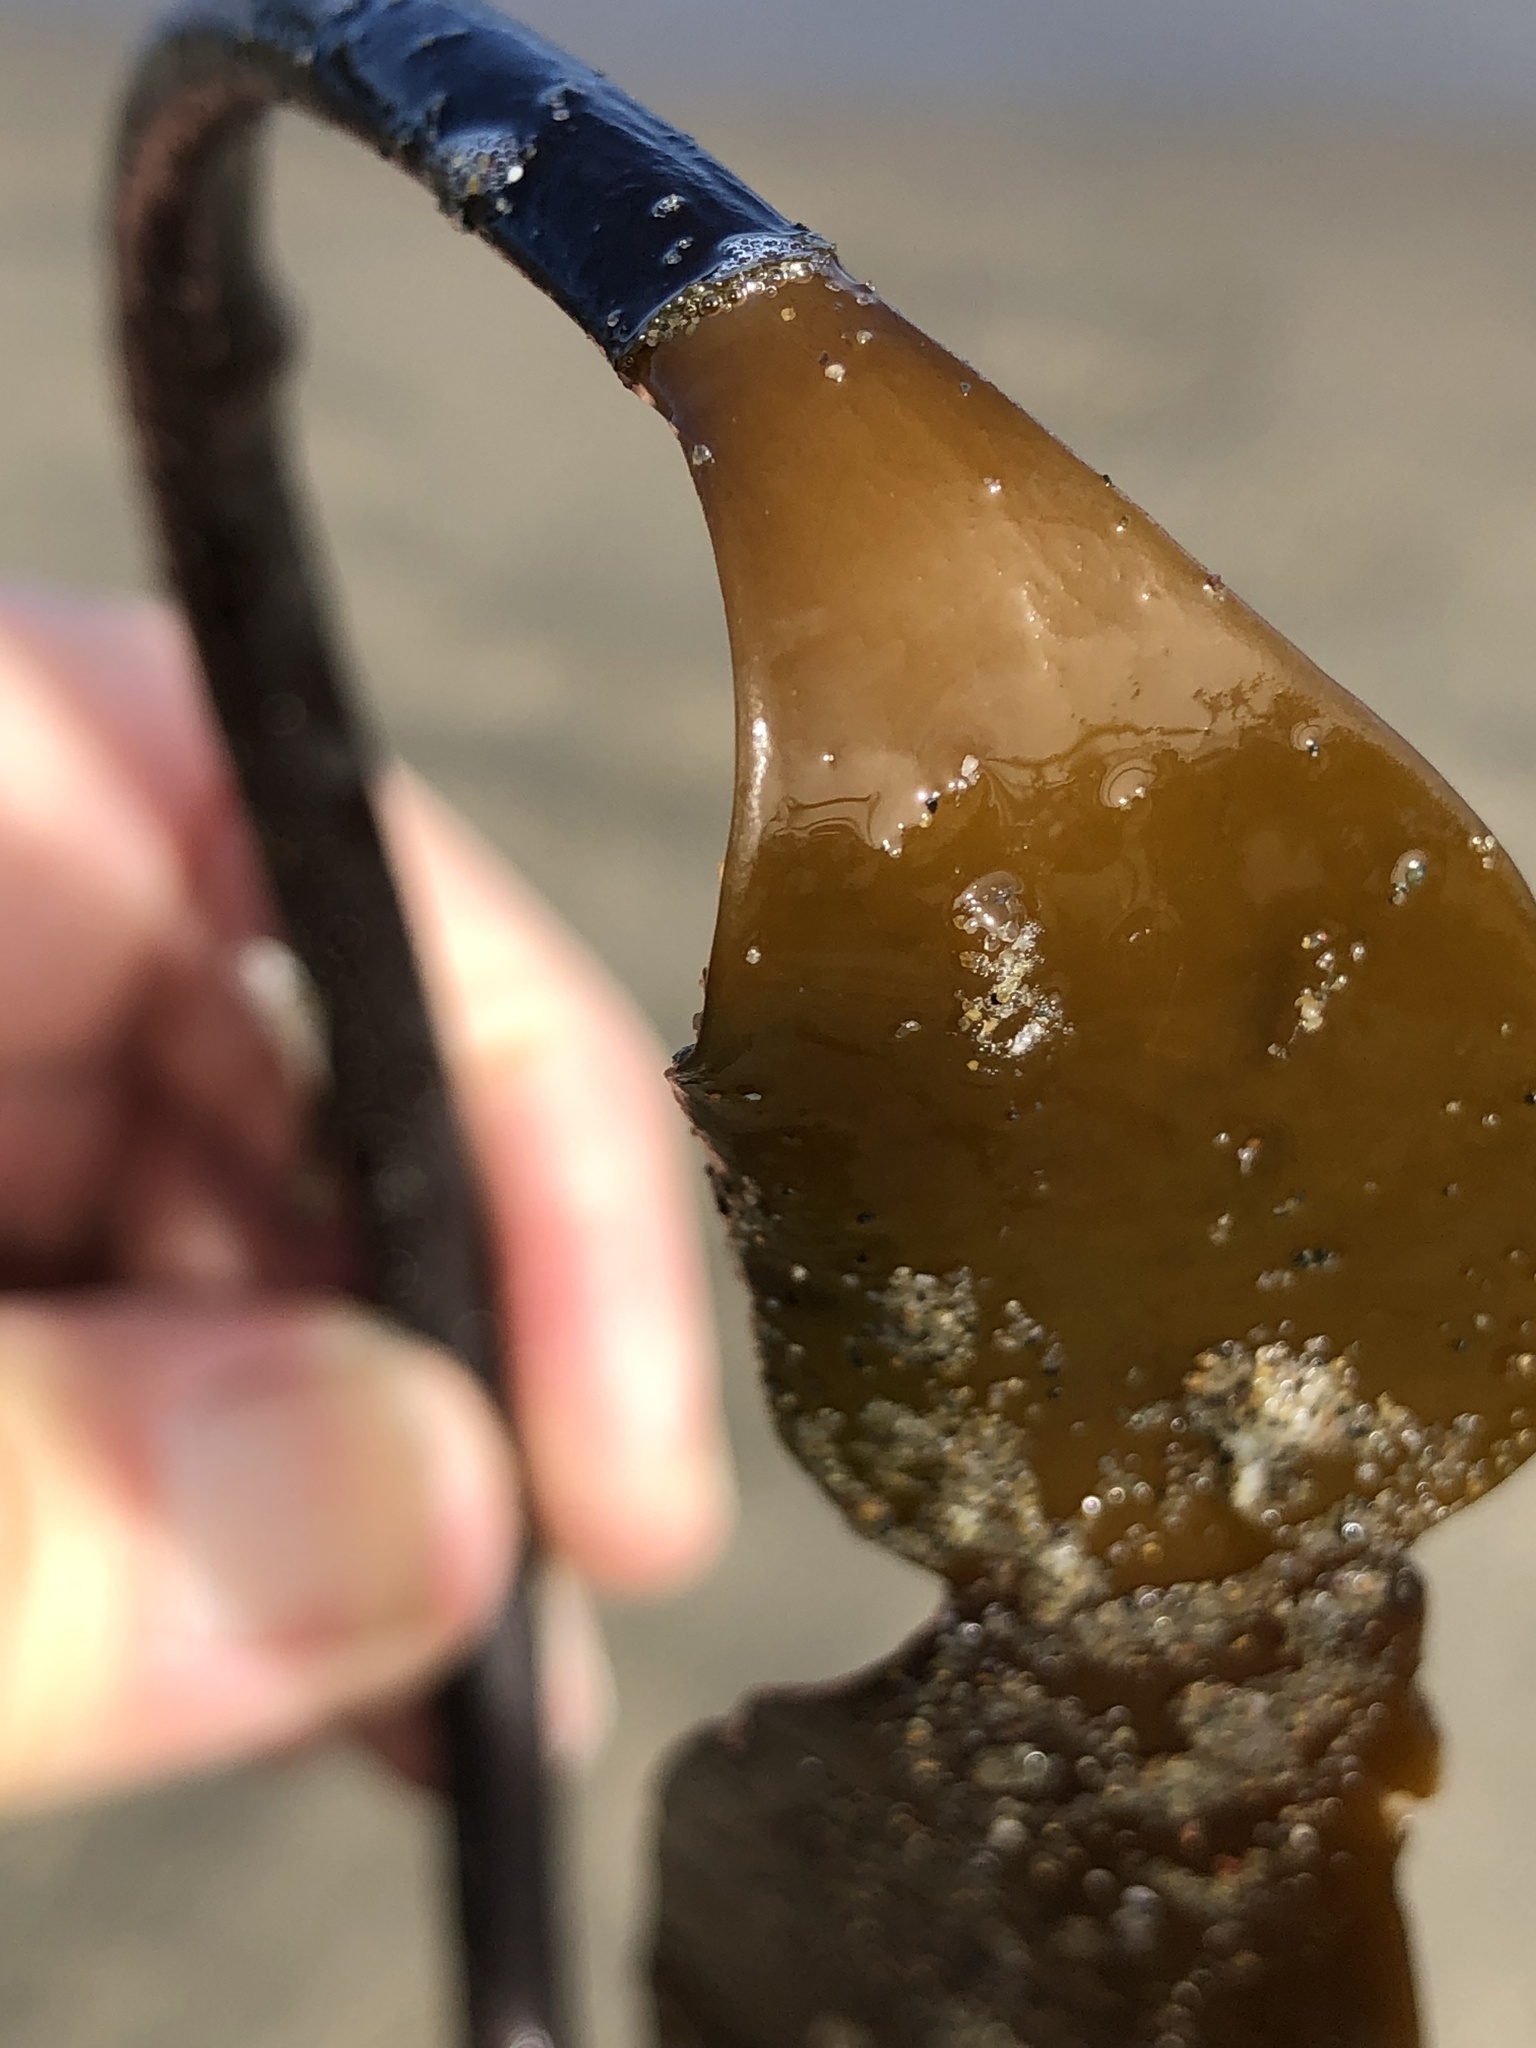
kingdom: Chromista
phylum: Ochrophyta
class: Phaeophyceae
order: Laminariales
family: Laminariaceae
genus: Laminaria
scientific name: Laminaria setchellii
